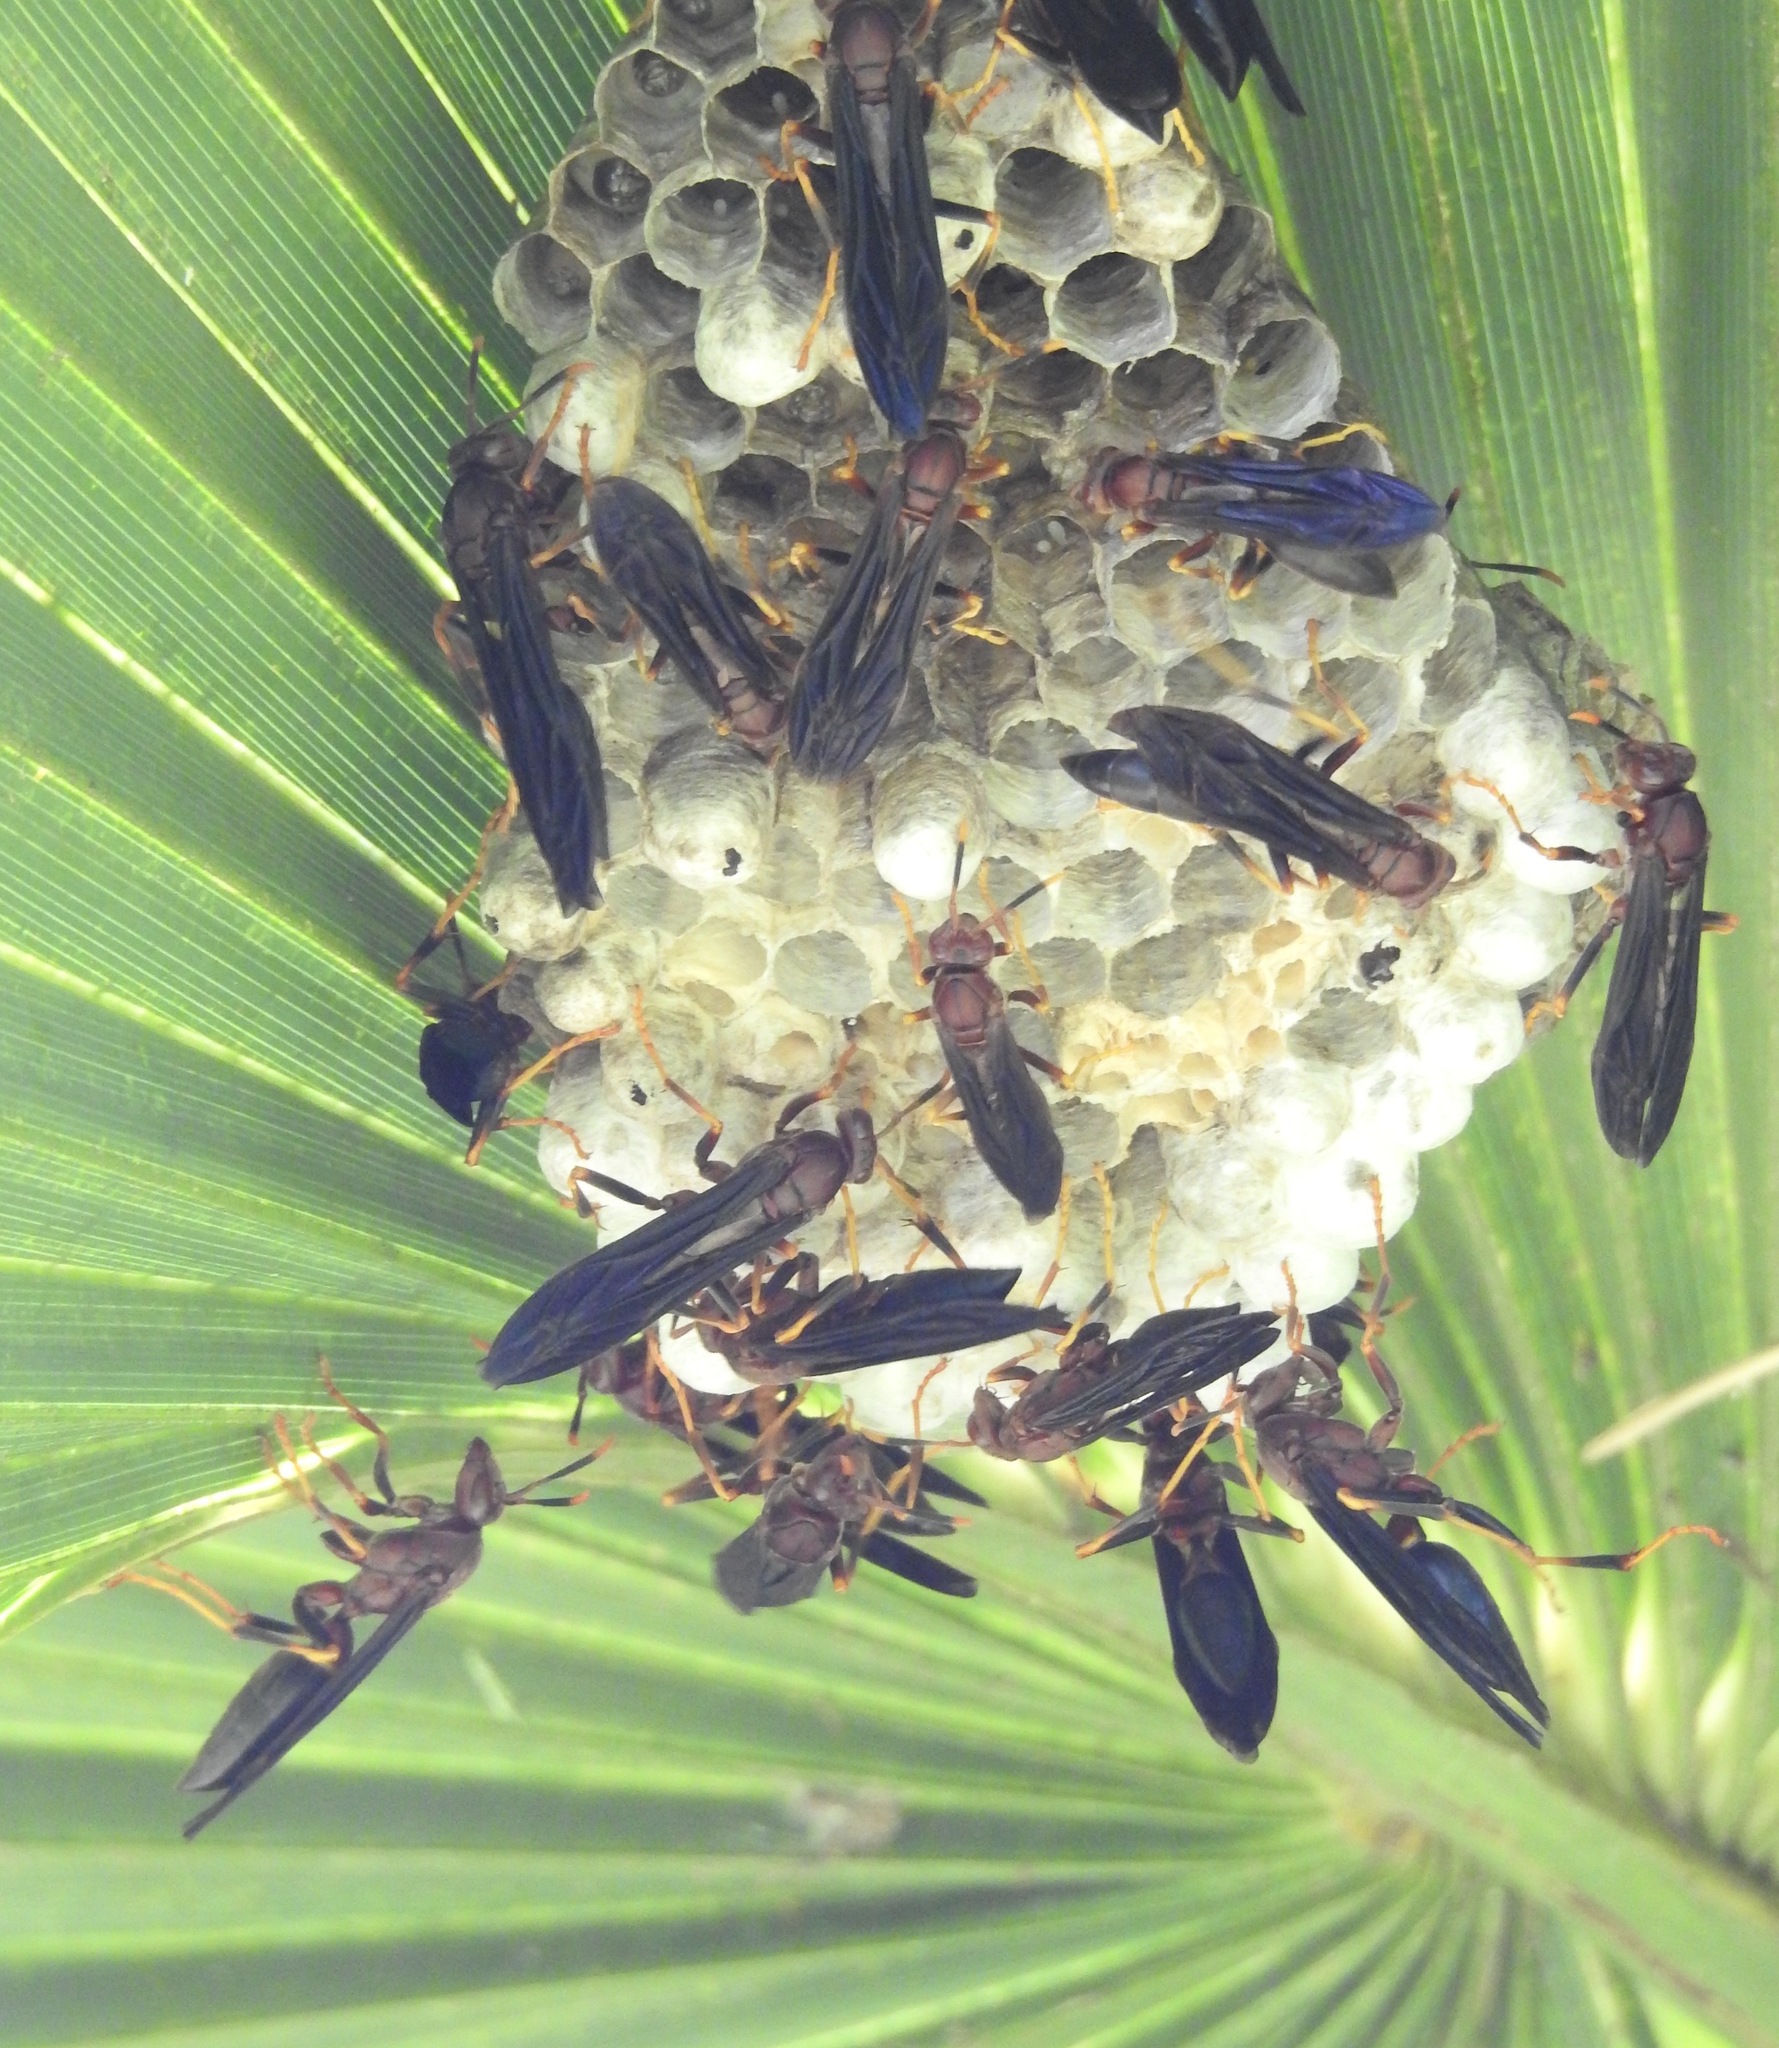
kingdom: Animalia
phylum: Arthropoda
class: Insecta
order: Hymenoptera
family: Eumenidae
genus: Polistes
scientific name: Polistes annularis
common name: Ringed paper wasp
